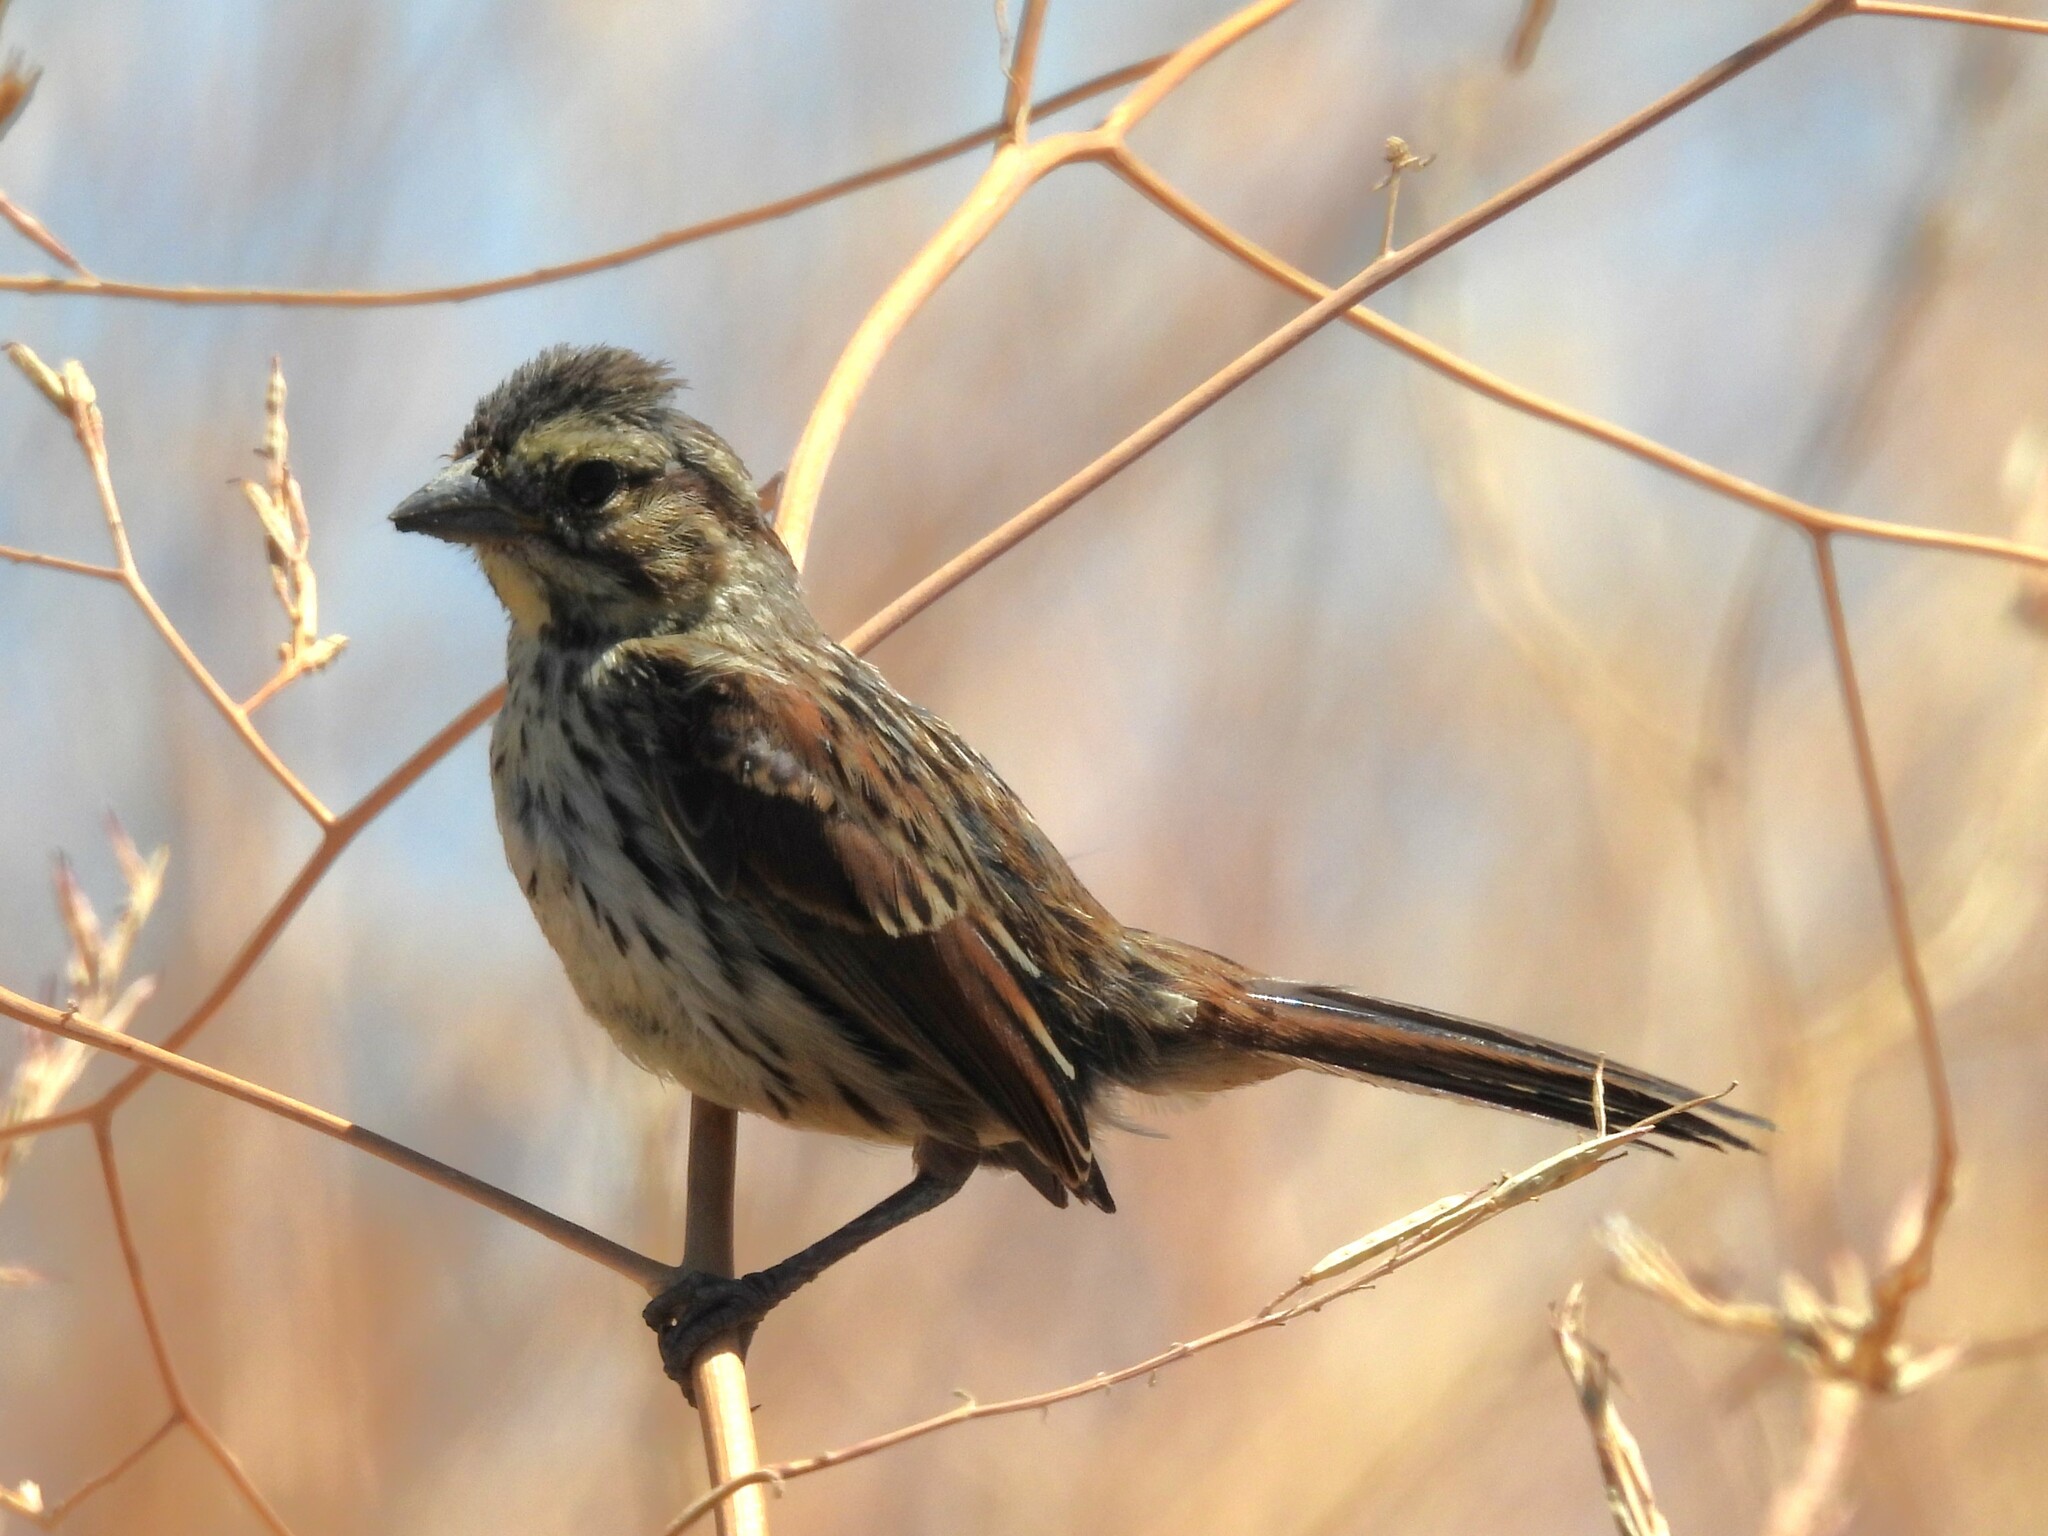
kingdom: Animalia
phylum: Chordata
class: Aves
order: Passeriformes
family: Passerellidae
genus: Melospiza
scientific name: Melospiza melodia
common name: Song sparrow
